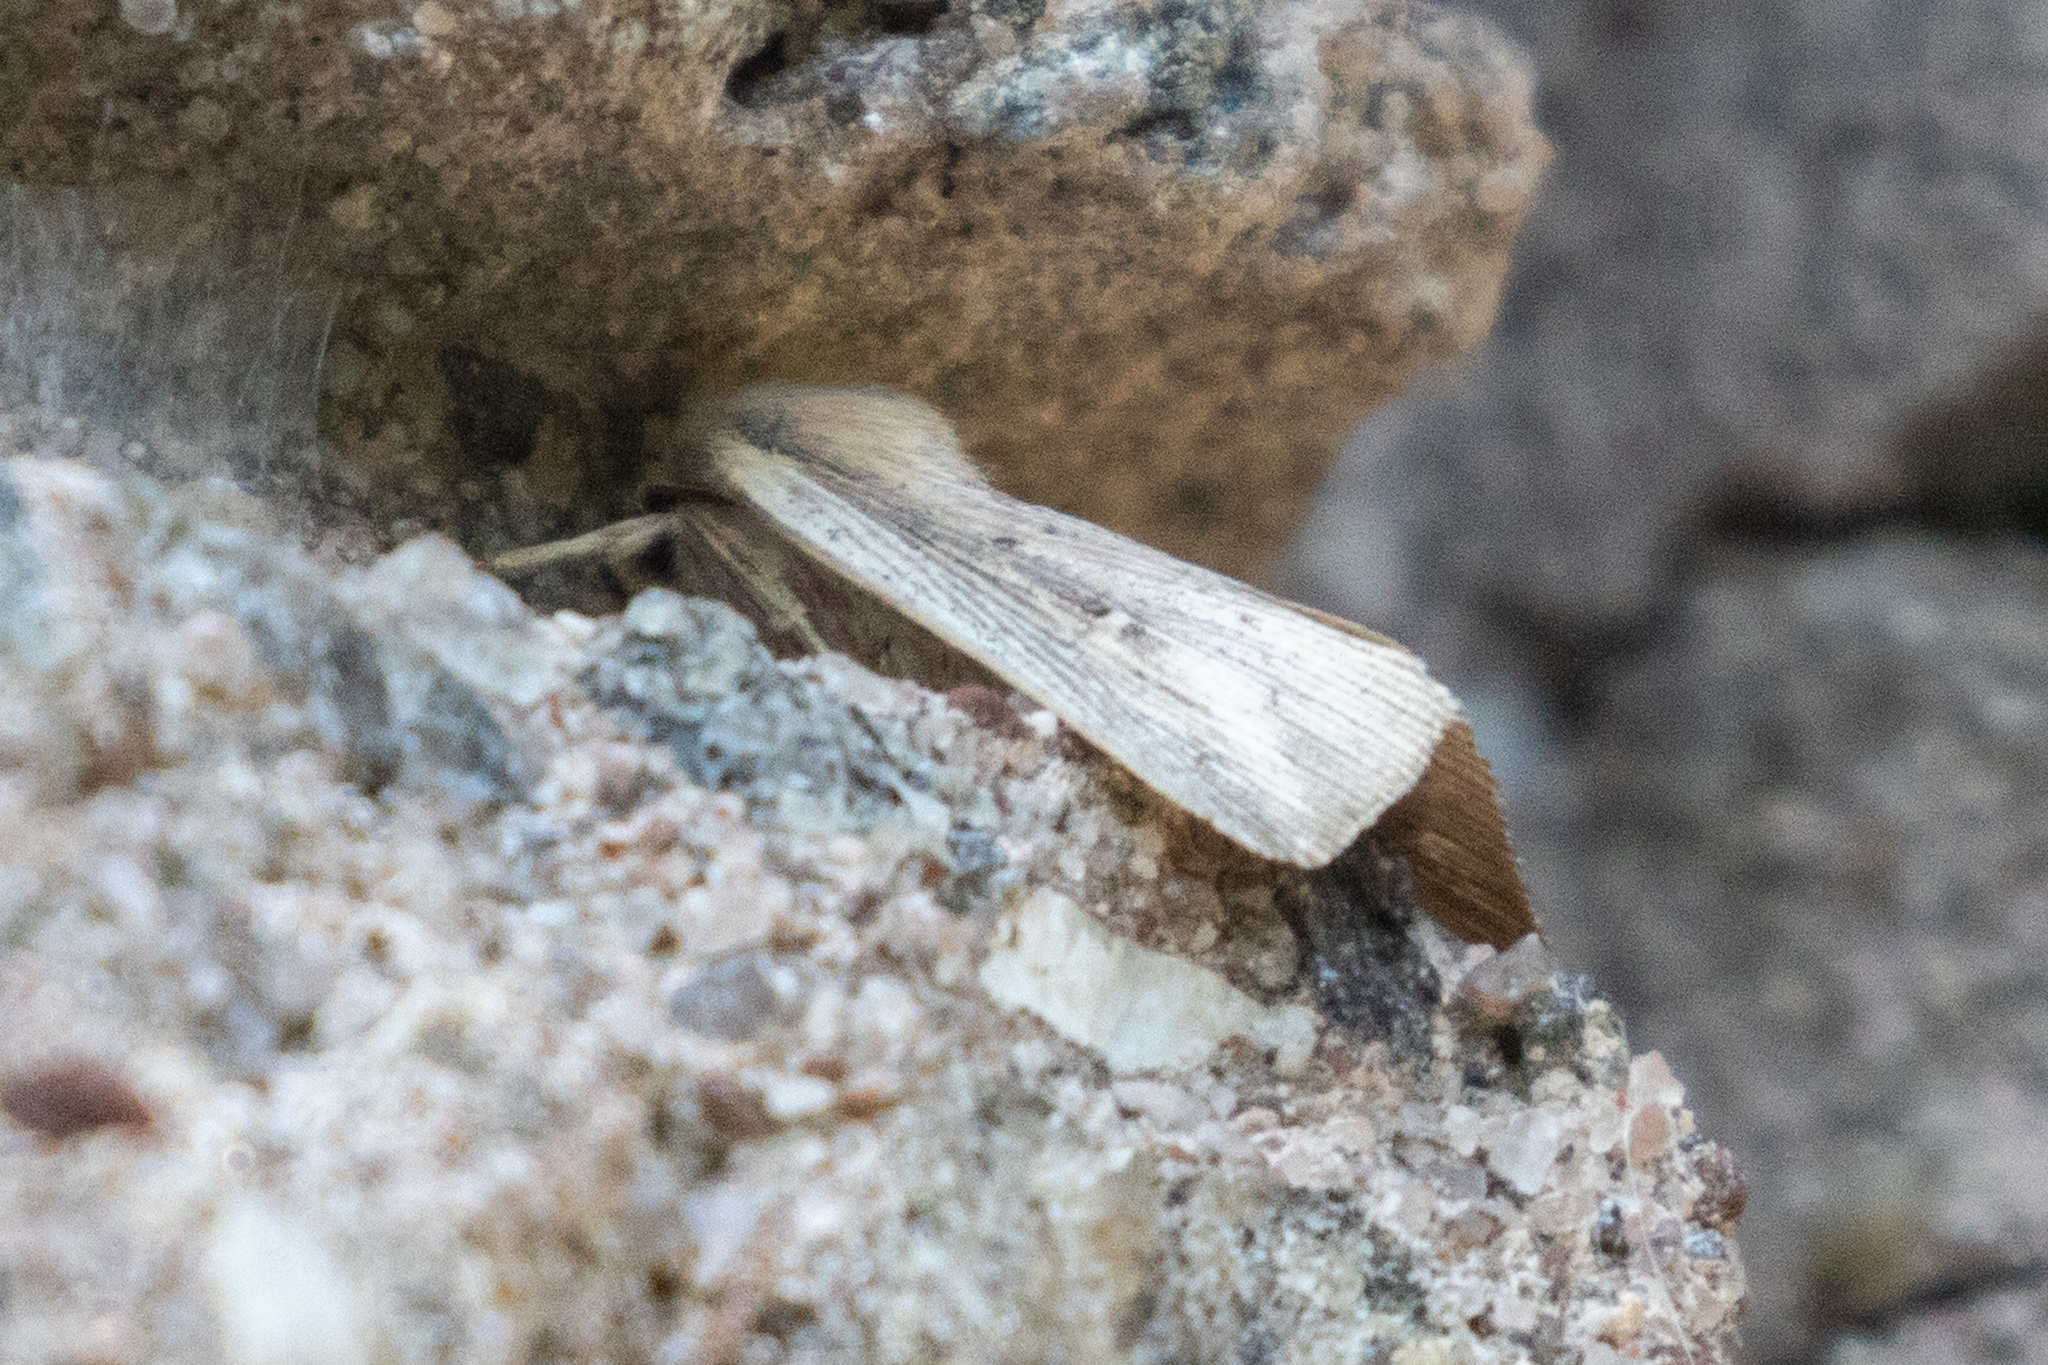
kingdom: Animalia
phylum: Arthropoda
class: Insecta
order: Lepidoptera
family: Noctuidae
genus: Leucania
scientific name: Leucania linita
